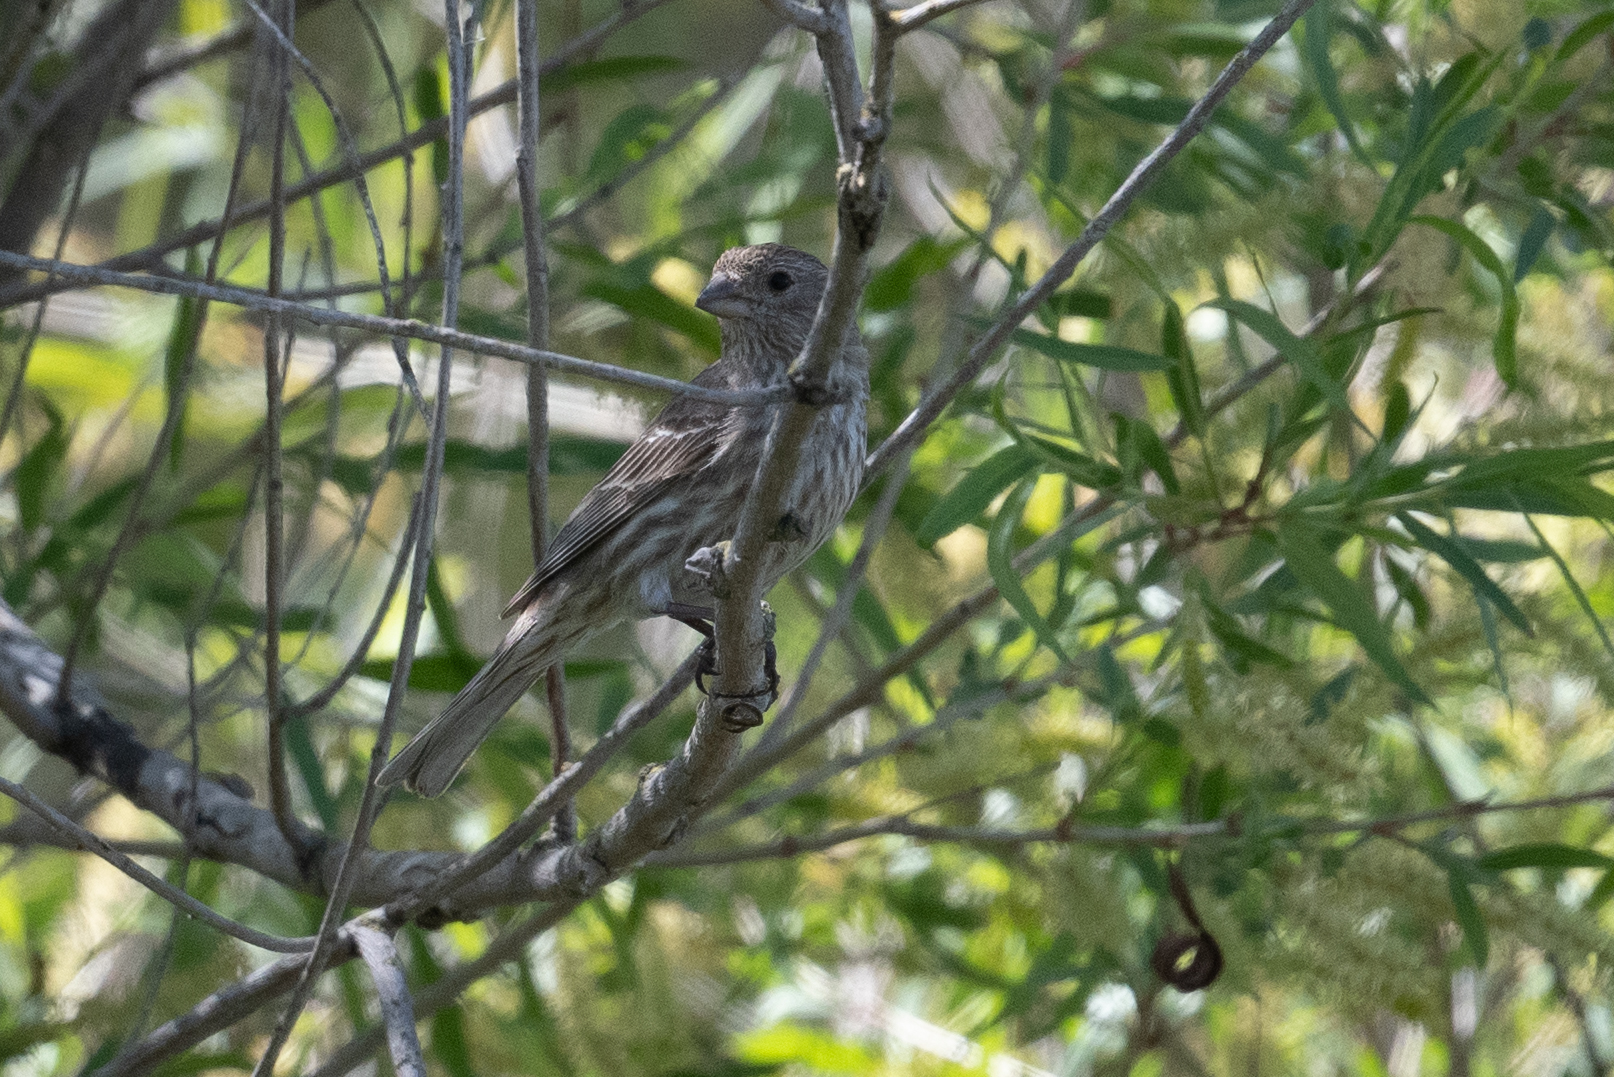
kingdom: Animalia
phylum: Chordata
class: Aves
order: Passeriformes
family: Fringillidae
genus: Haemorhous
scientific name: Haemorhous mexicanus
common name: House finch
